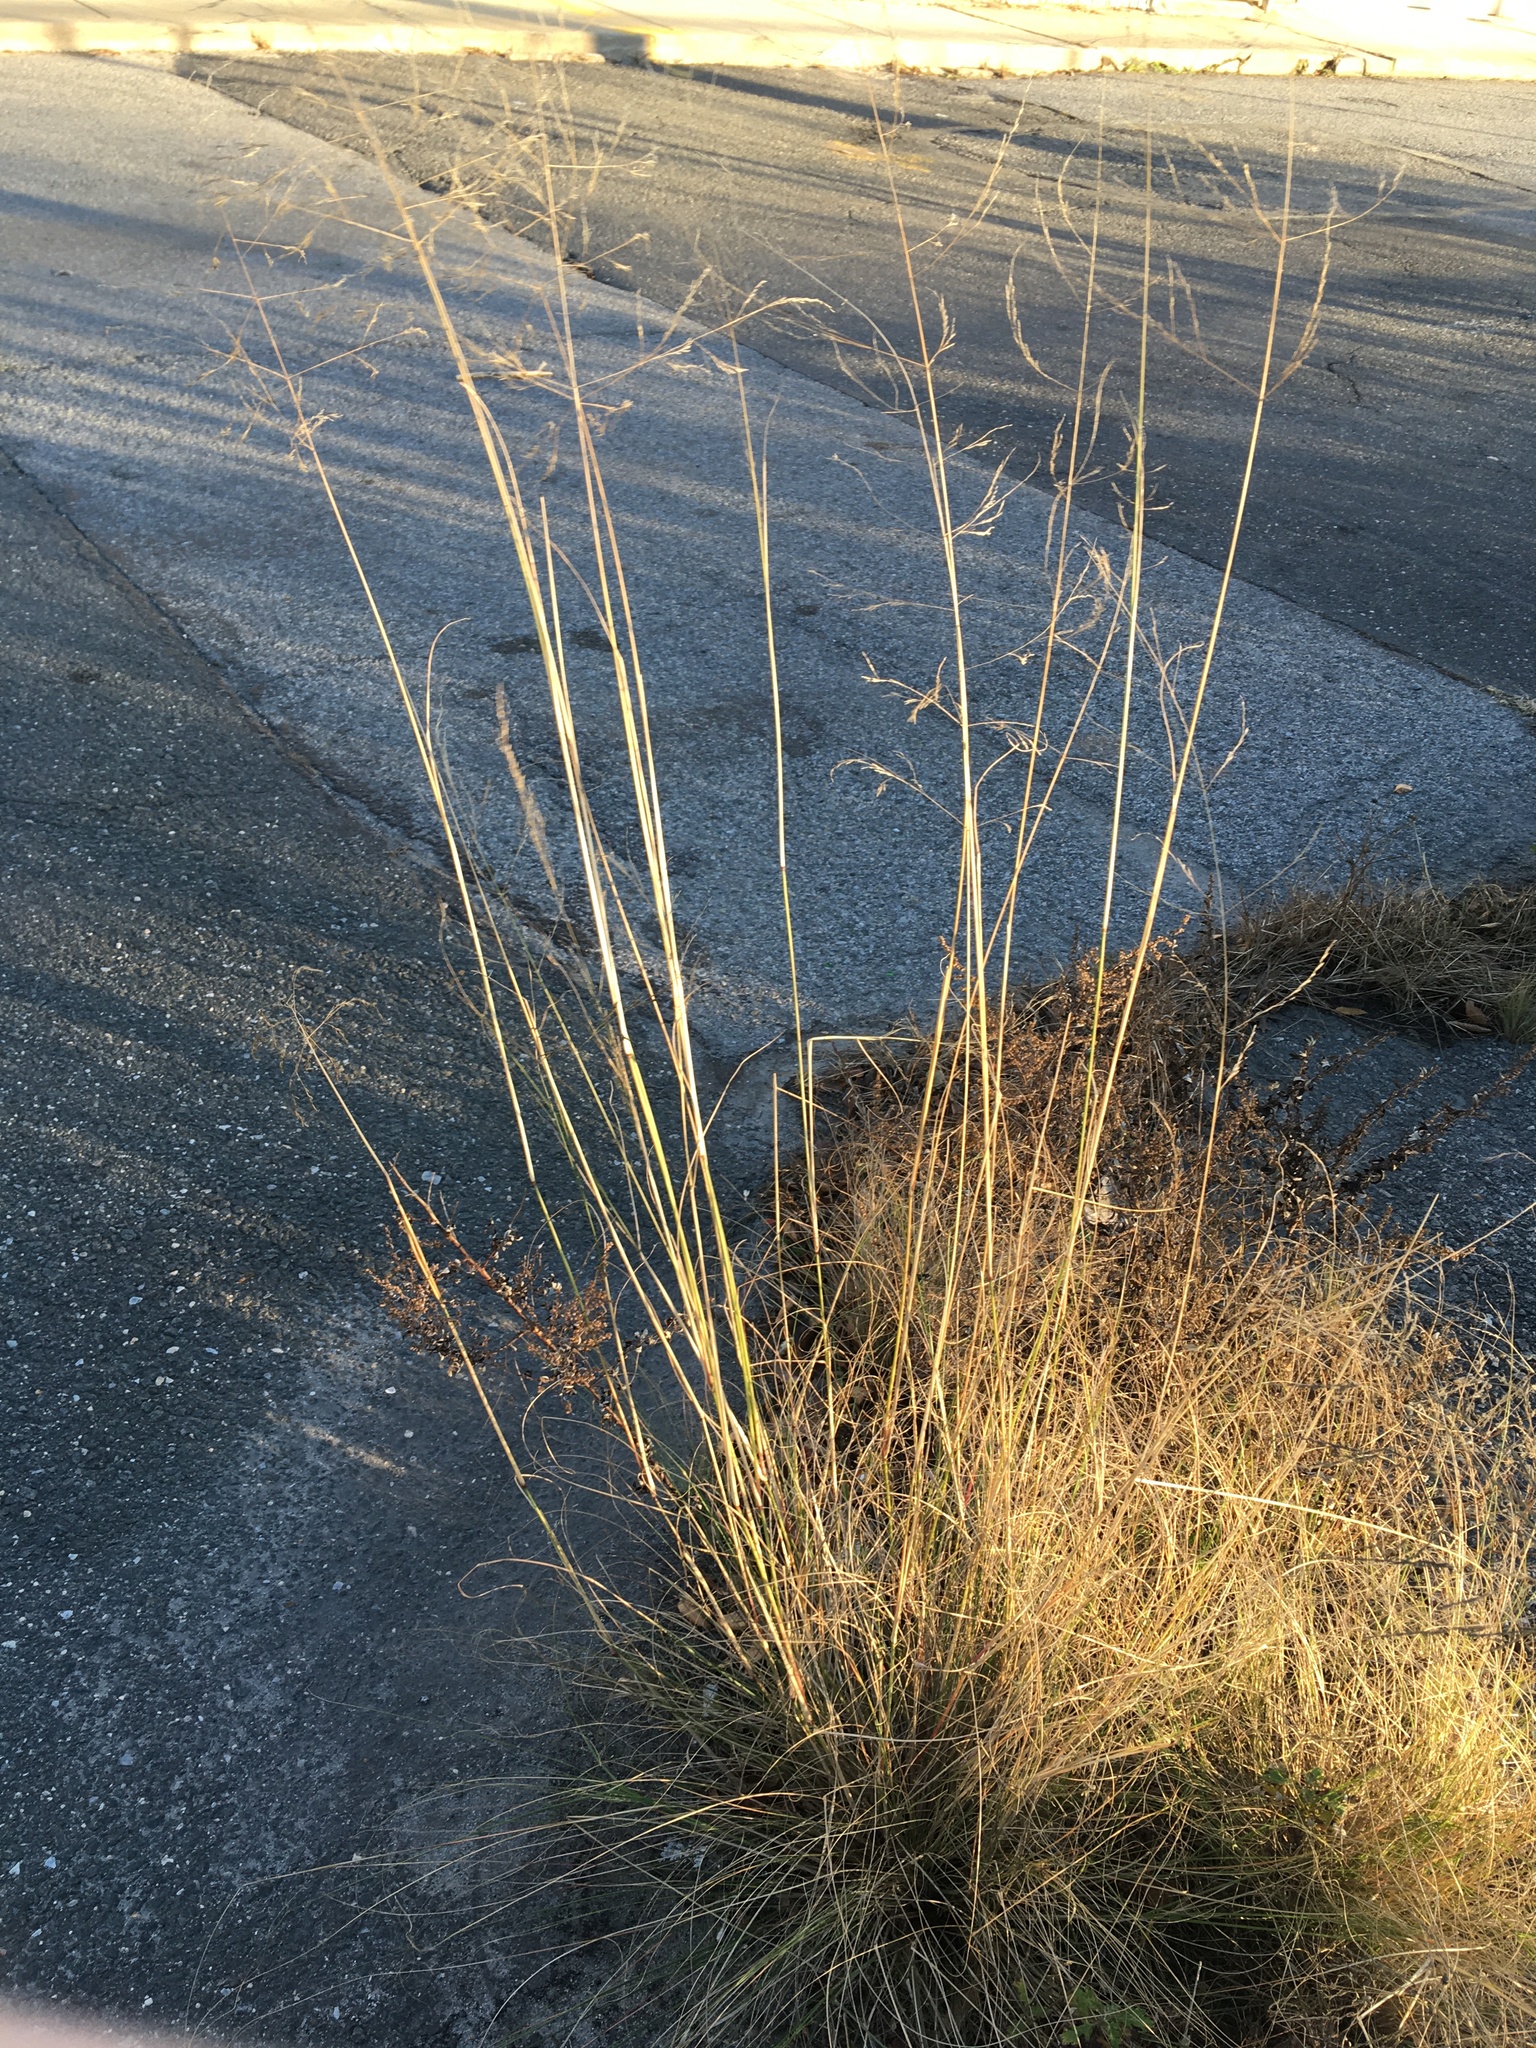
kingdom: Plantae
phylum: Tracheophyta
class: Liliopsida
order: Poales
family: Poaceae
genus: Eragrostis
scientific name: Eragrostis curvula
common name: African love-grass
